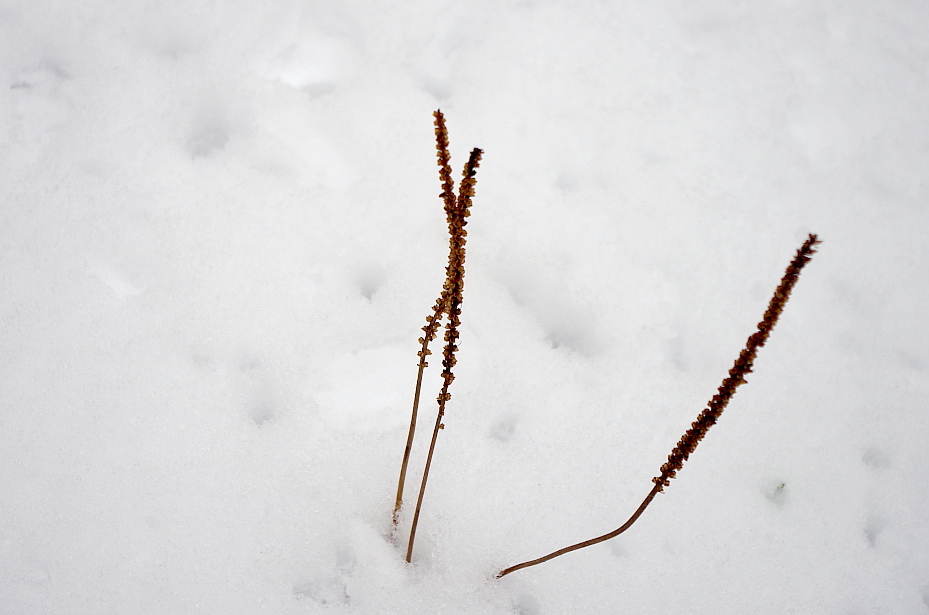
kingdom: Plantae
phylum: Tracheophyta
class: Magnoliopsida
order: Lamiales
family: Plantaginaceae
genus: Plantago
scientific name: Plantago major
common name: Common plantain
